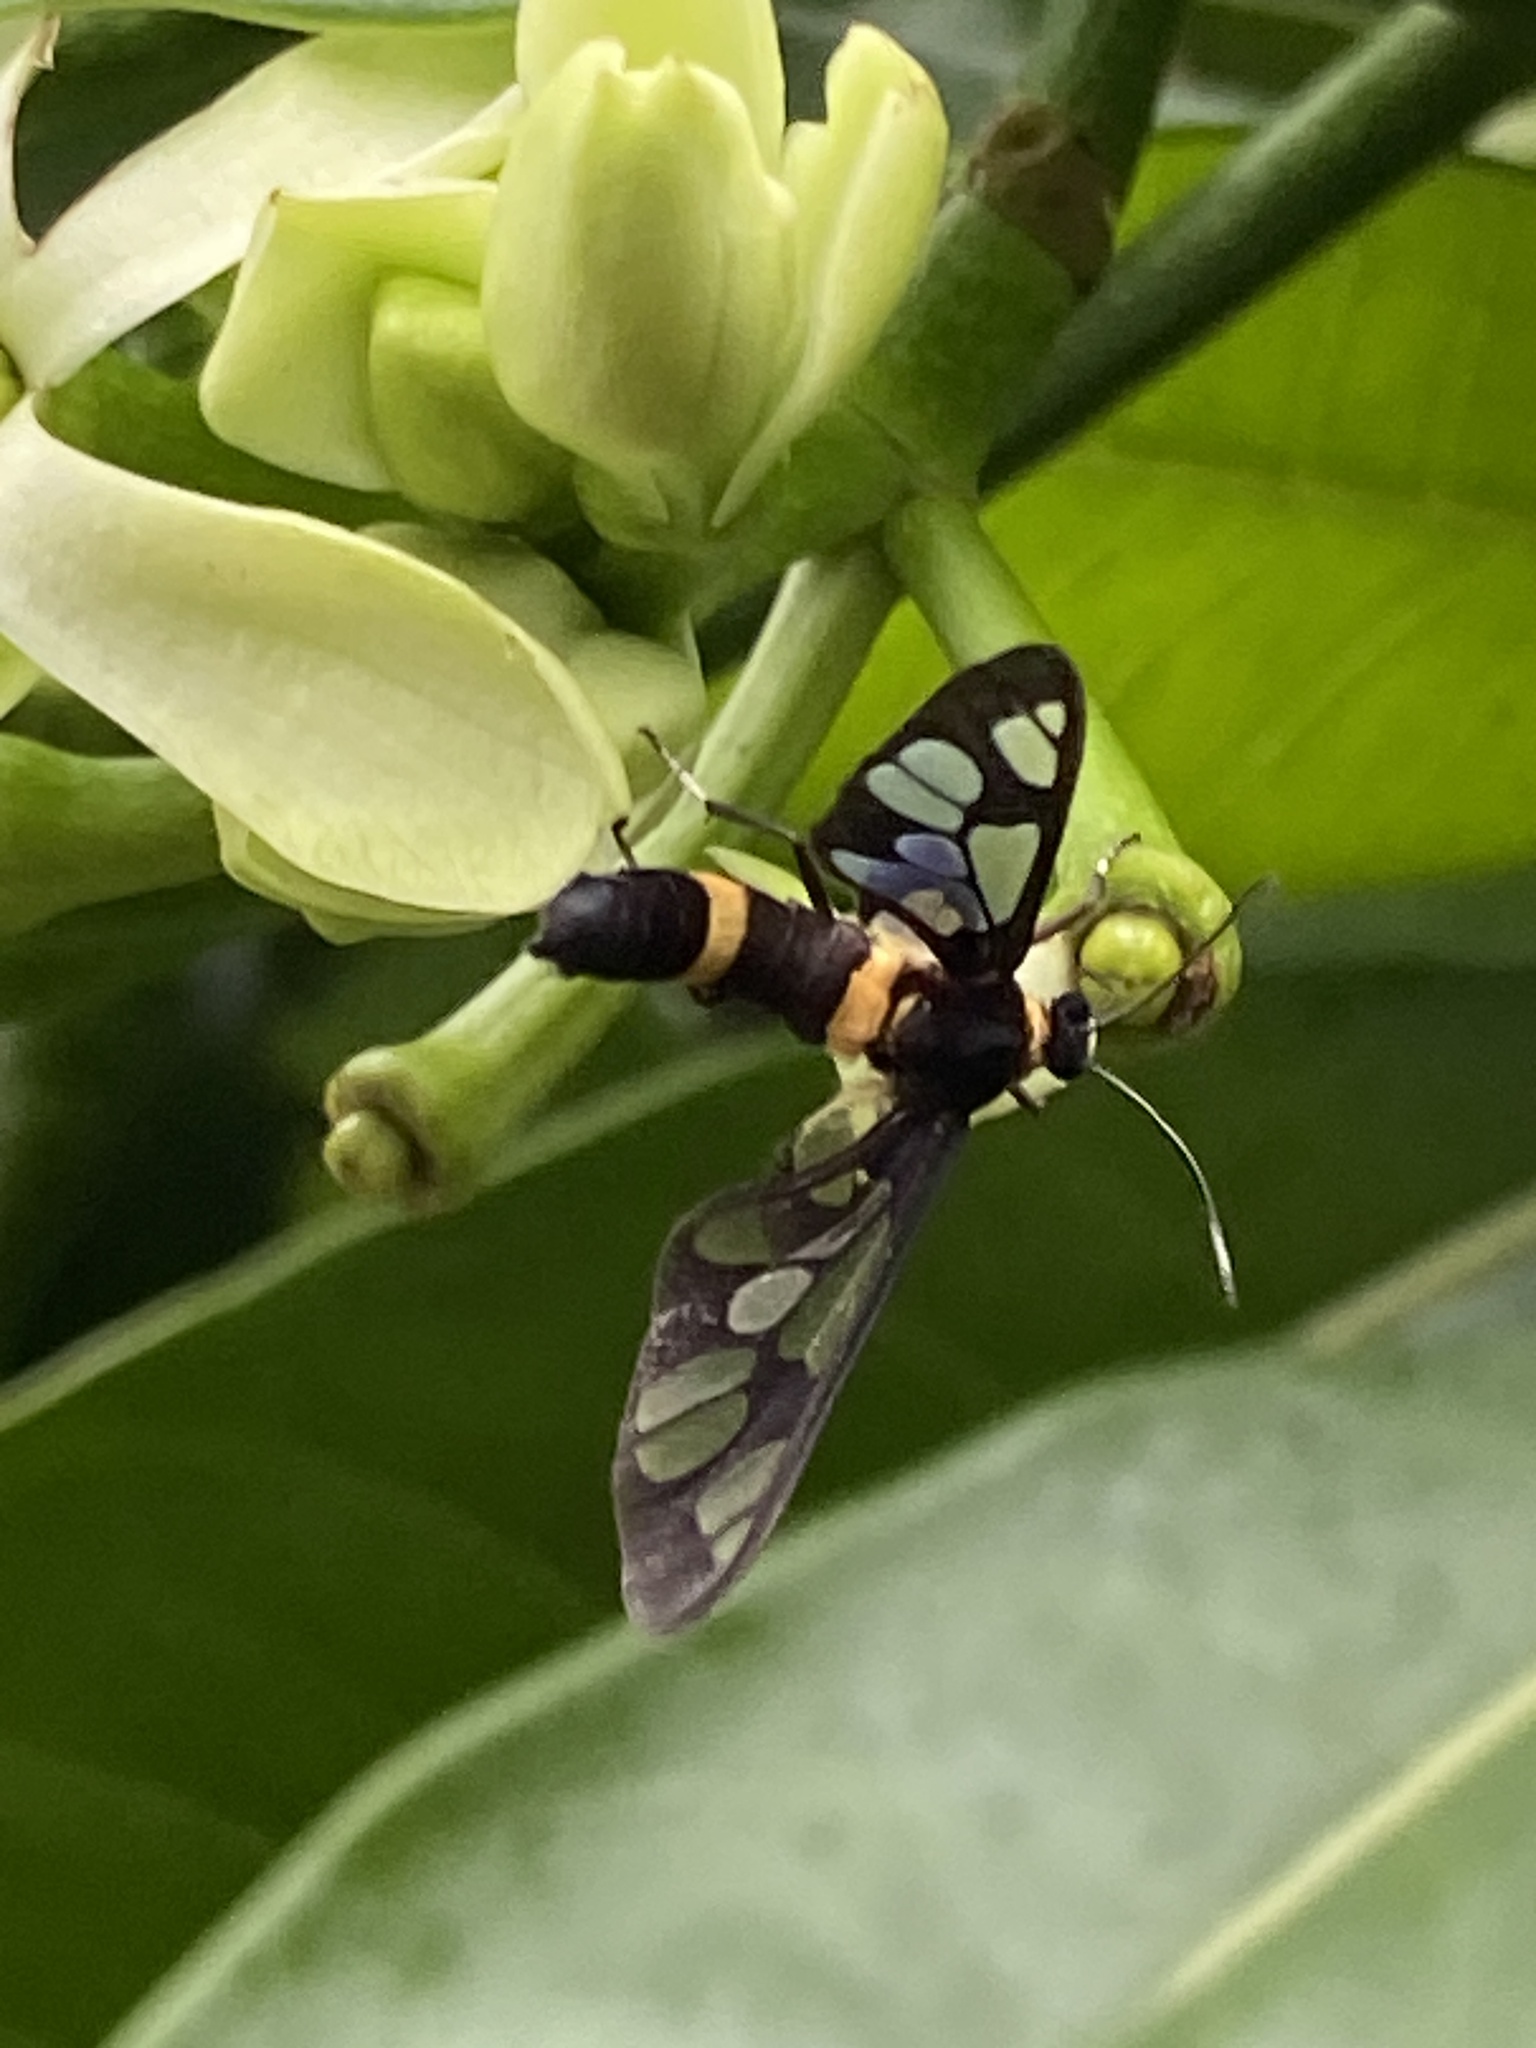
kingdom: Animalia
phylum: Arthropoda
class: Insecta
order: Lepidoptera
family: Erebidae
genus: Syntomoides
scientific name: Syntomoides imaon
